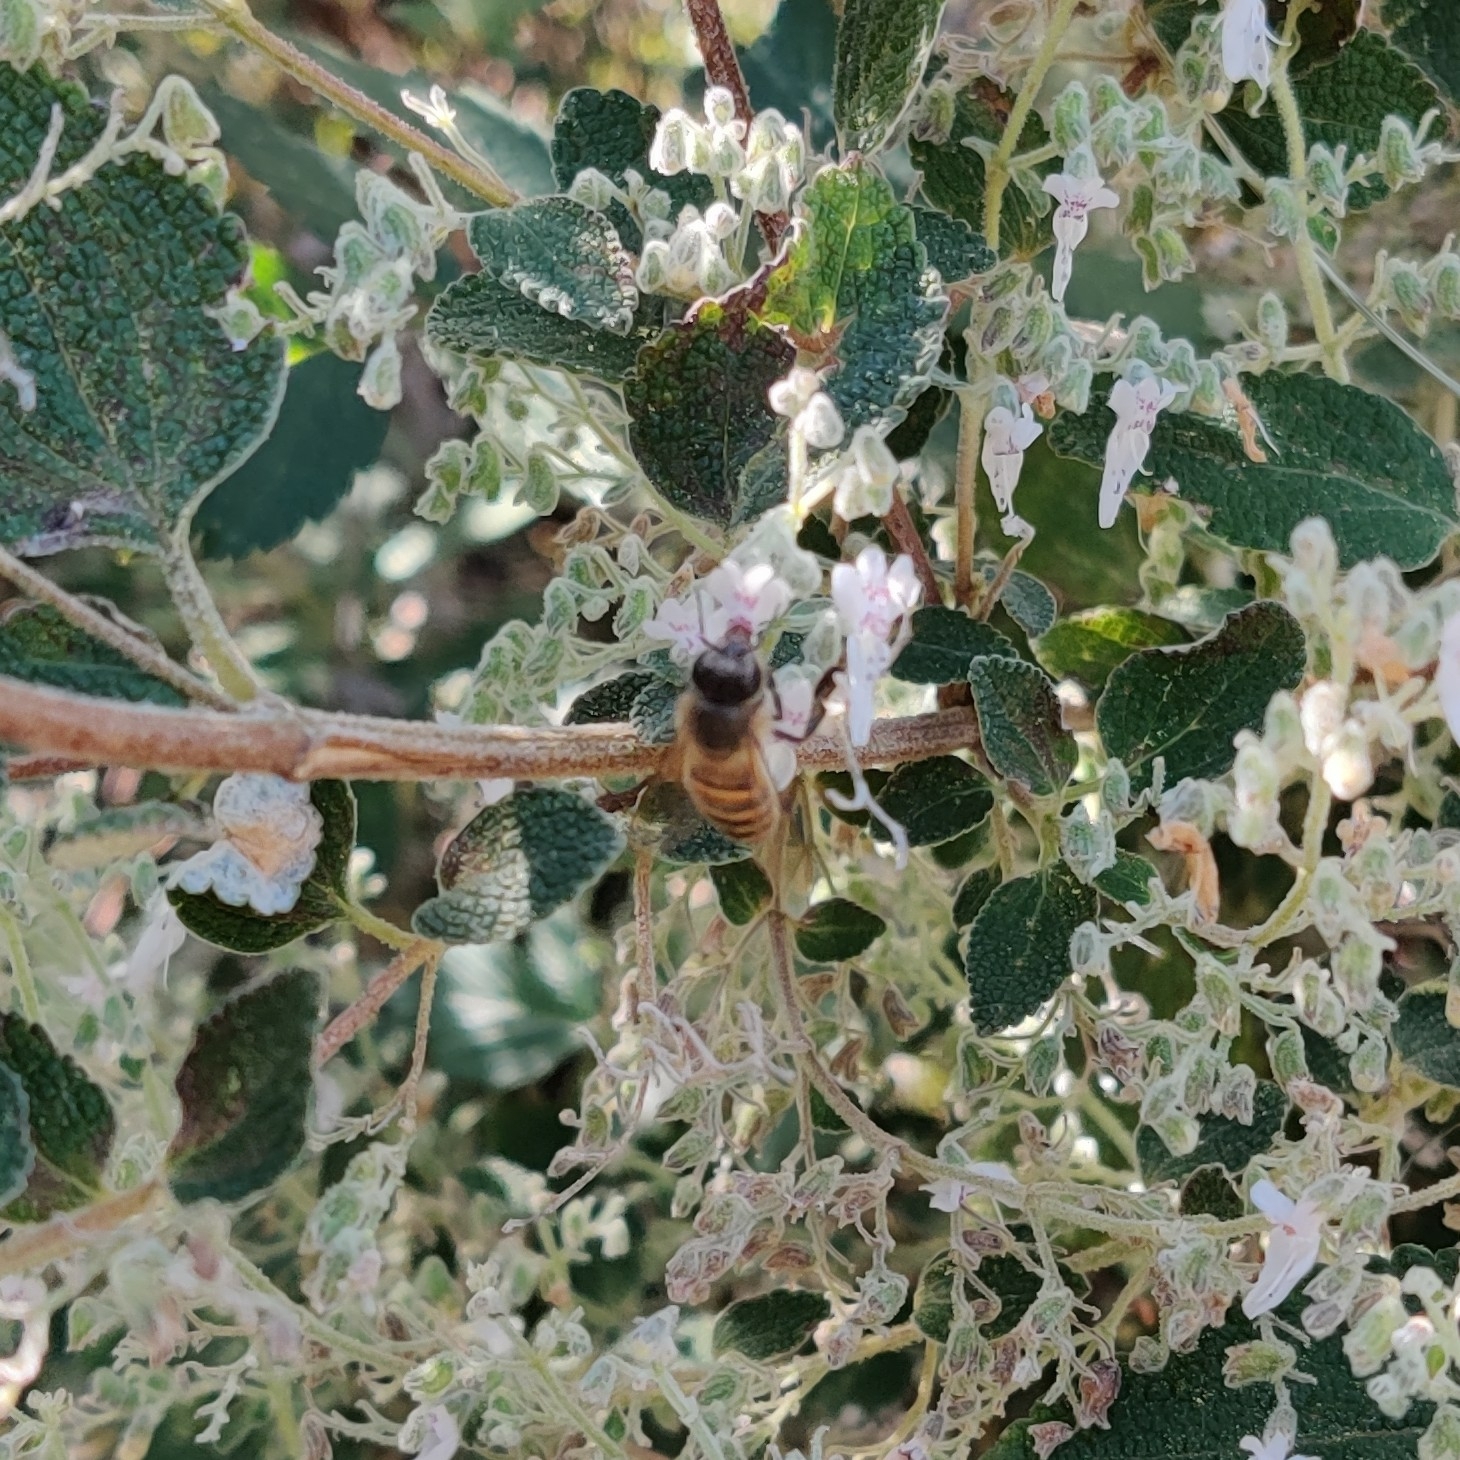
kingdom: Animalia
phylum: Arthropoda
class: Insecta
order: Hymenoptera
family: Apidae
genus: Apis
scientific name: Apis
